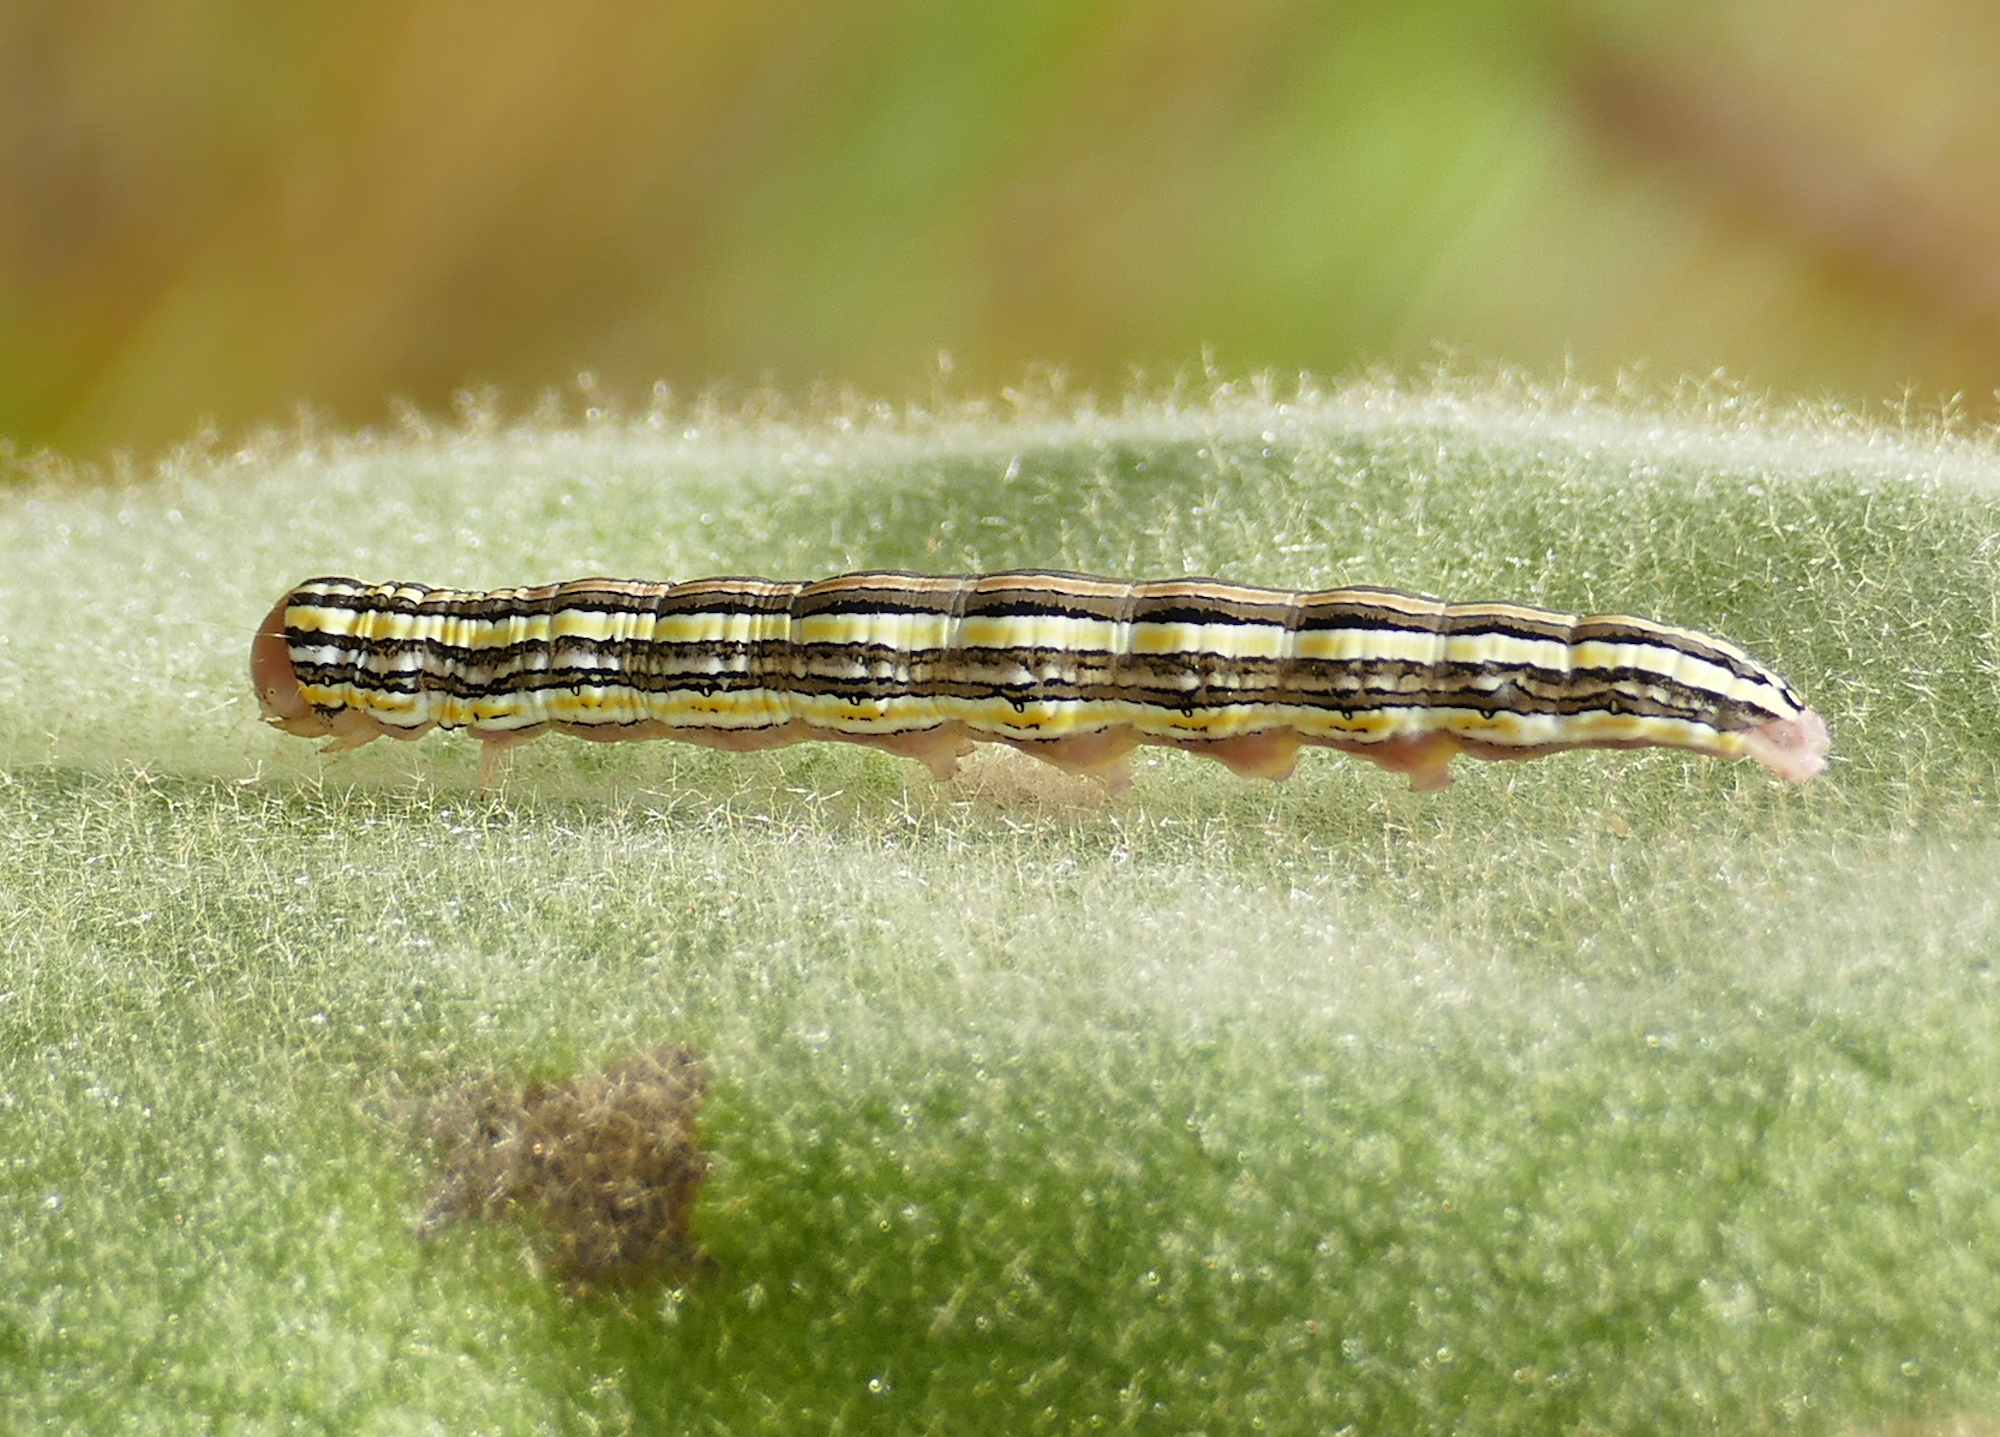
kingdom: Animalia
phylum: Arthropoda
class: Insecta
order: Lepidoptera
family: Noctuidae
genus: Trichordestra
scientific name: Trichordestra prodeniformis
